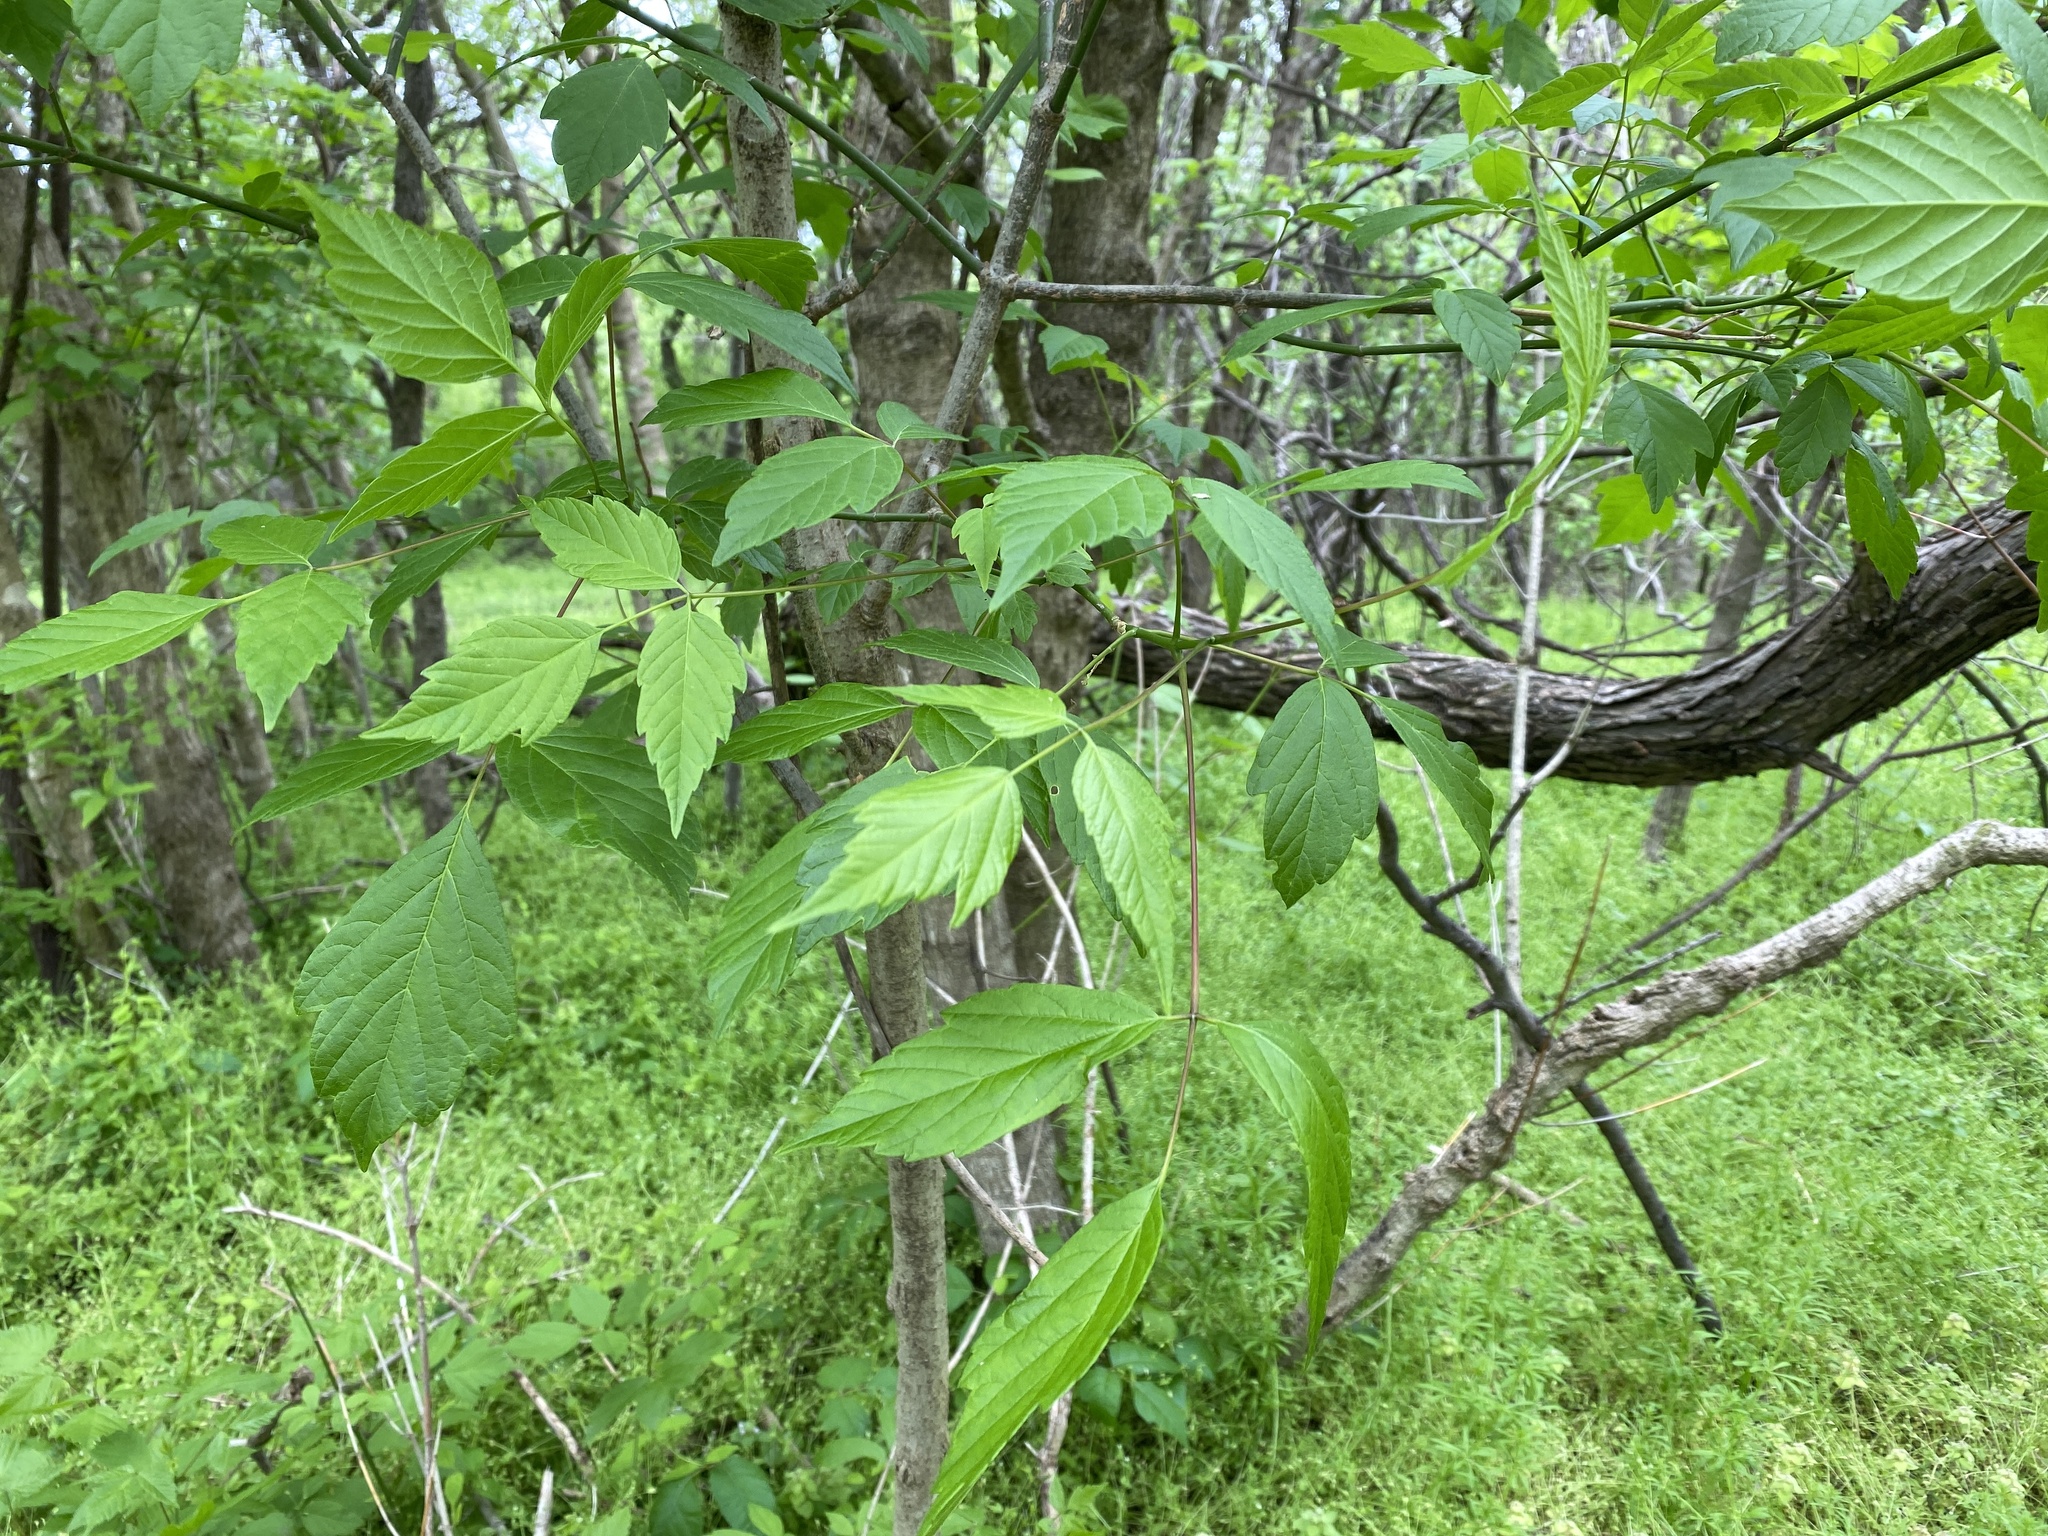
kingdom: Plantae
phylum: Tracheophyta
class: Magnoliopsida
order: Sapindales
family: Sapindaceae
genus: Acer
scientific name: Acer negundo
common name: Ashleaf maple
